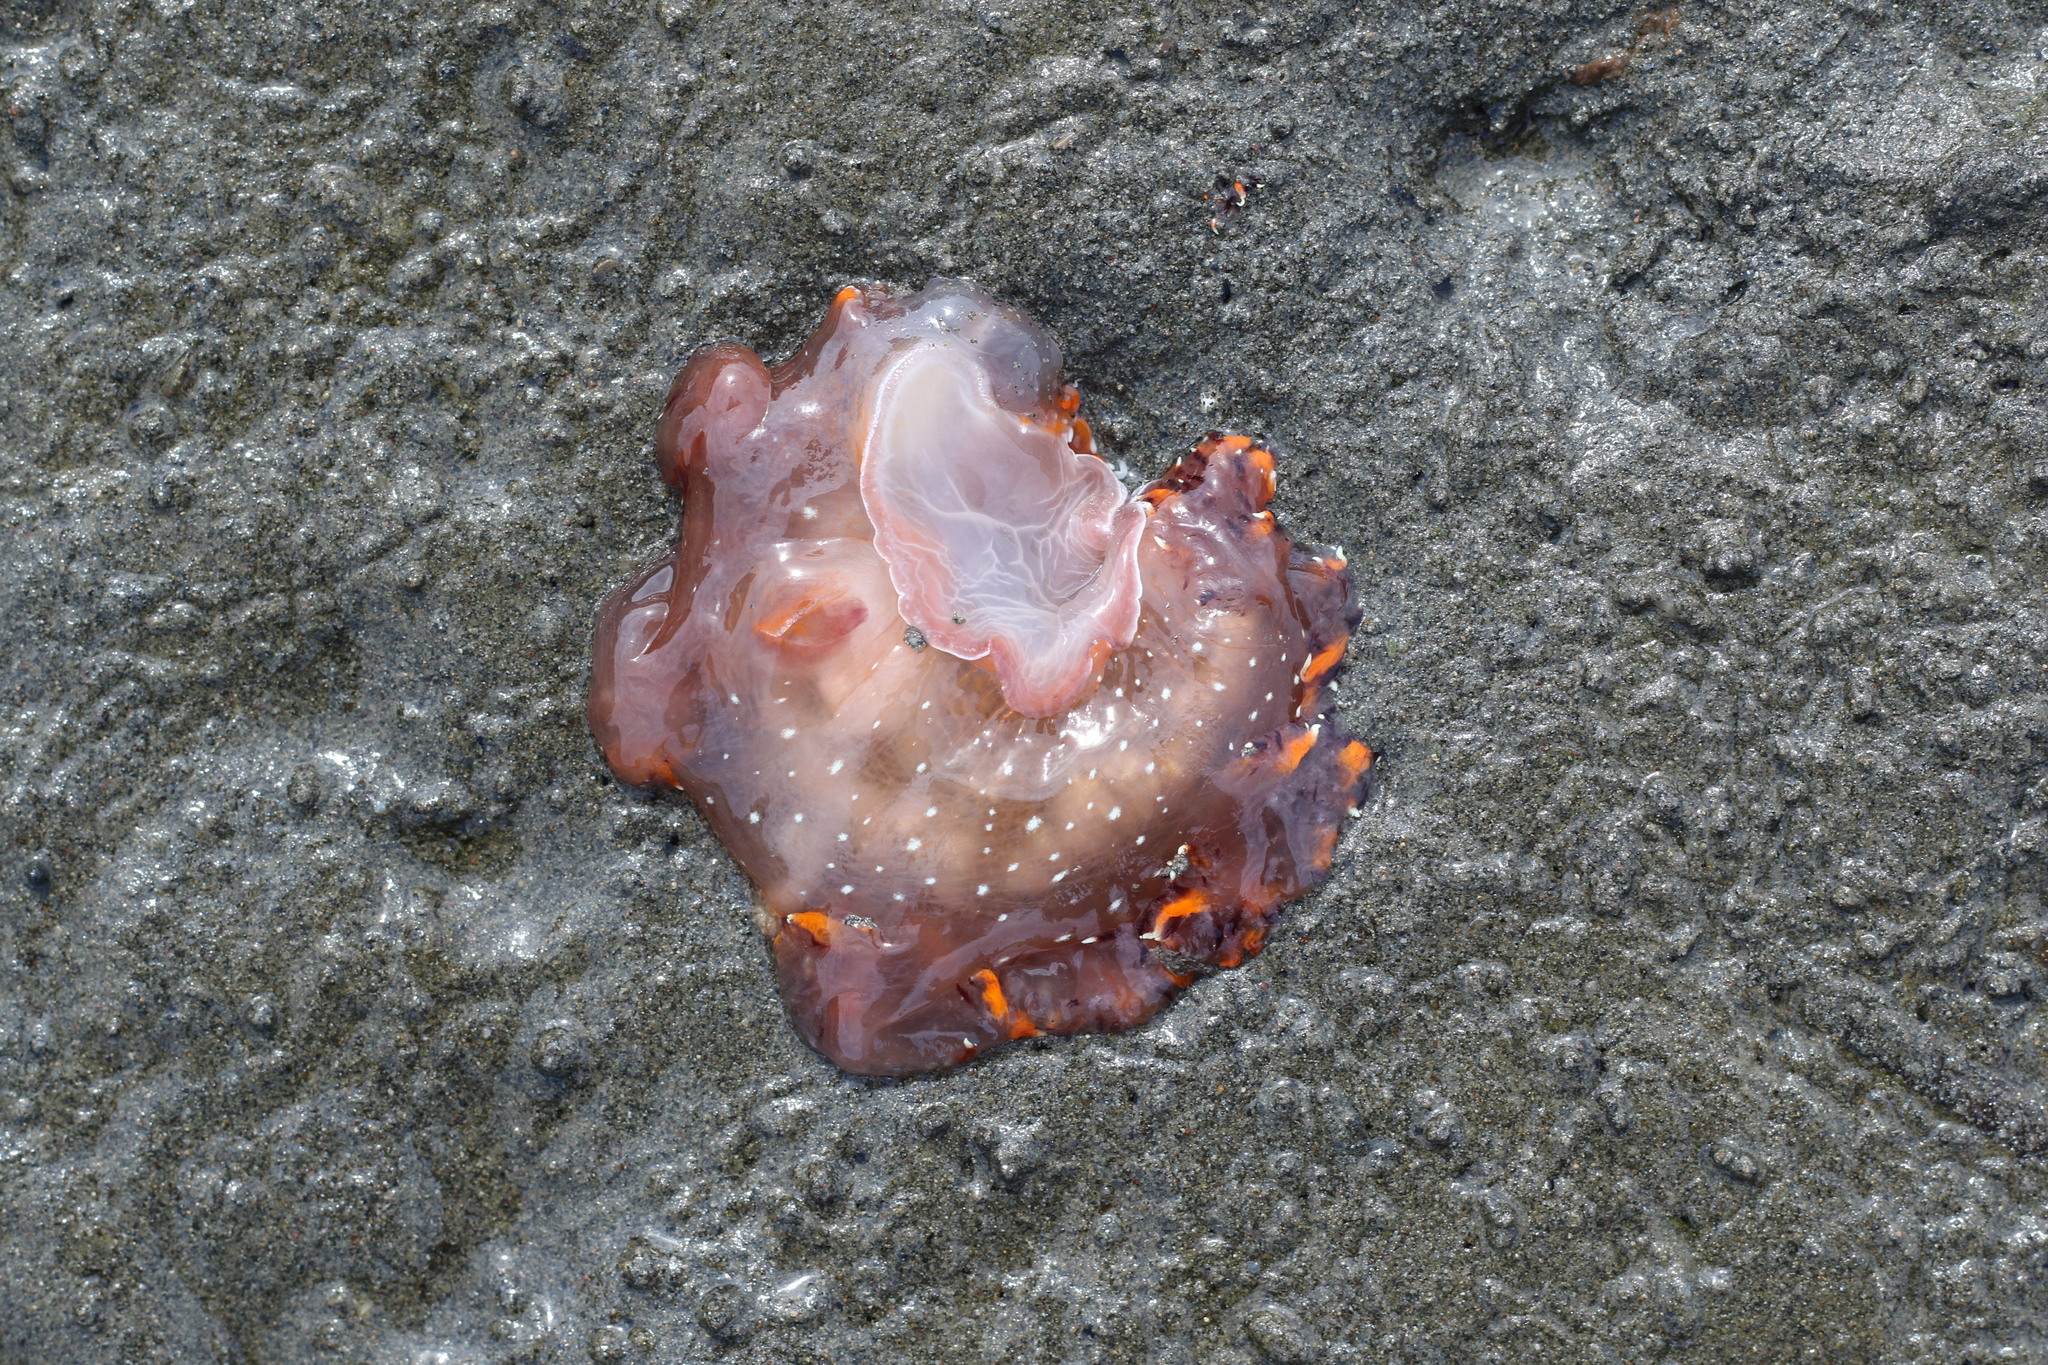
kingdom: Animalia
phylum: Mollusca
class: Gastropoda
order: Nudibranchia
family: Dendronotidae
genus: Dendronotus
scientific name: Dendronotus iris
